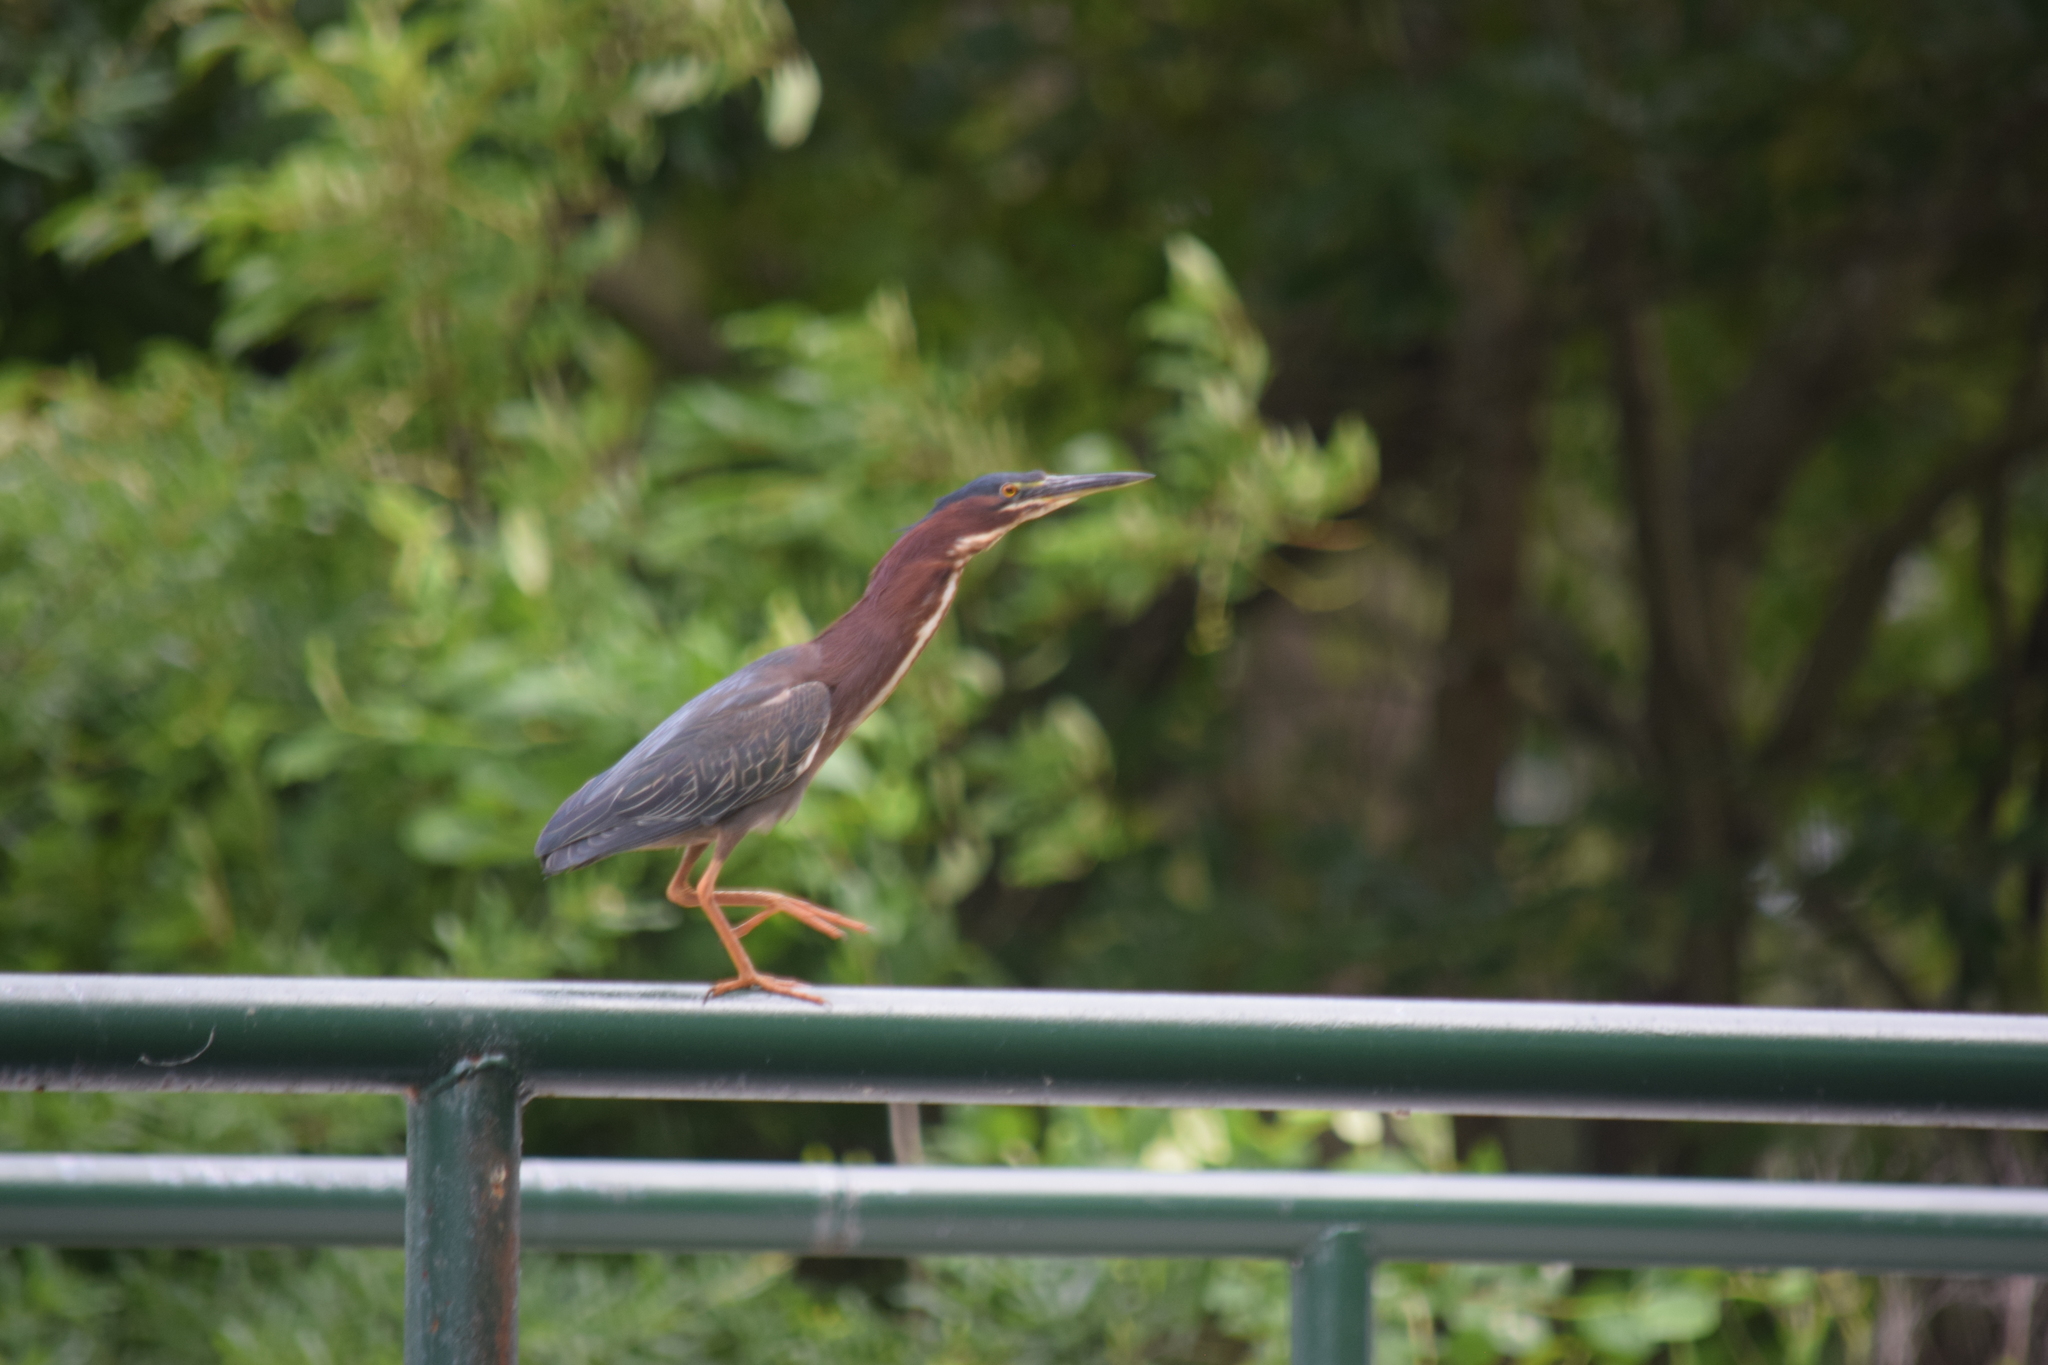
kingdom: Animalia
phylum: Chordata
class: Aves
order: Pelecaniformes
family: Ardeidae
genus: Butorides
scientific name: Butorides virescens
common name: Green heron
